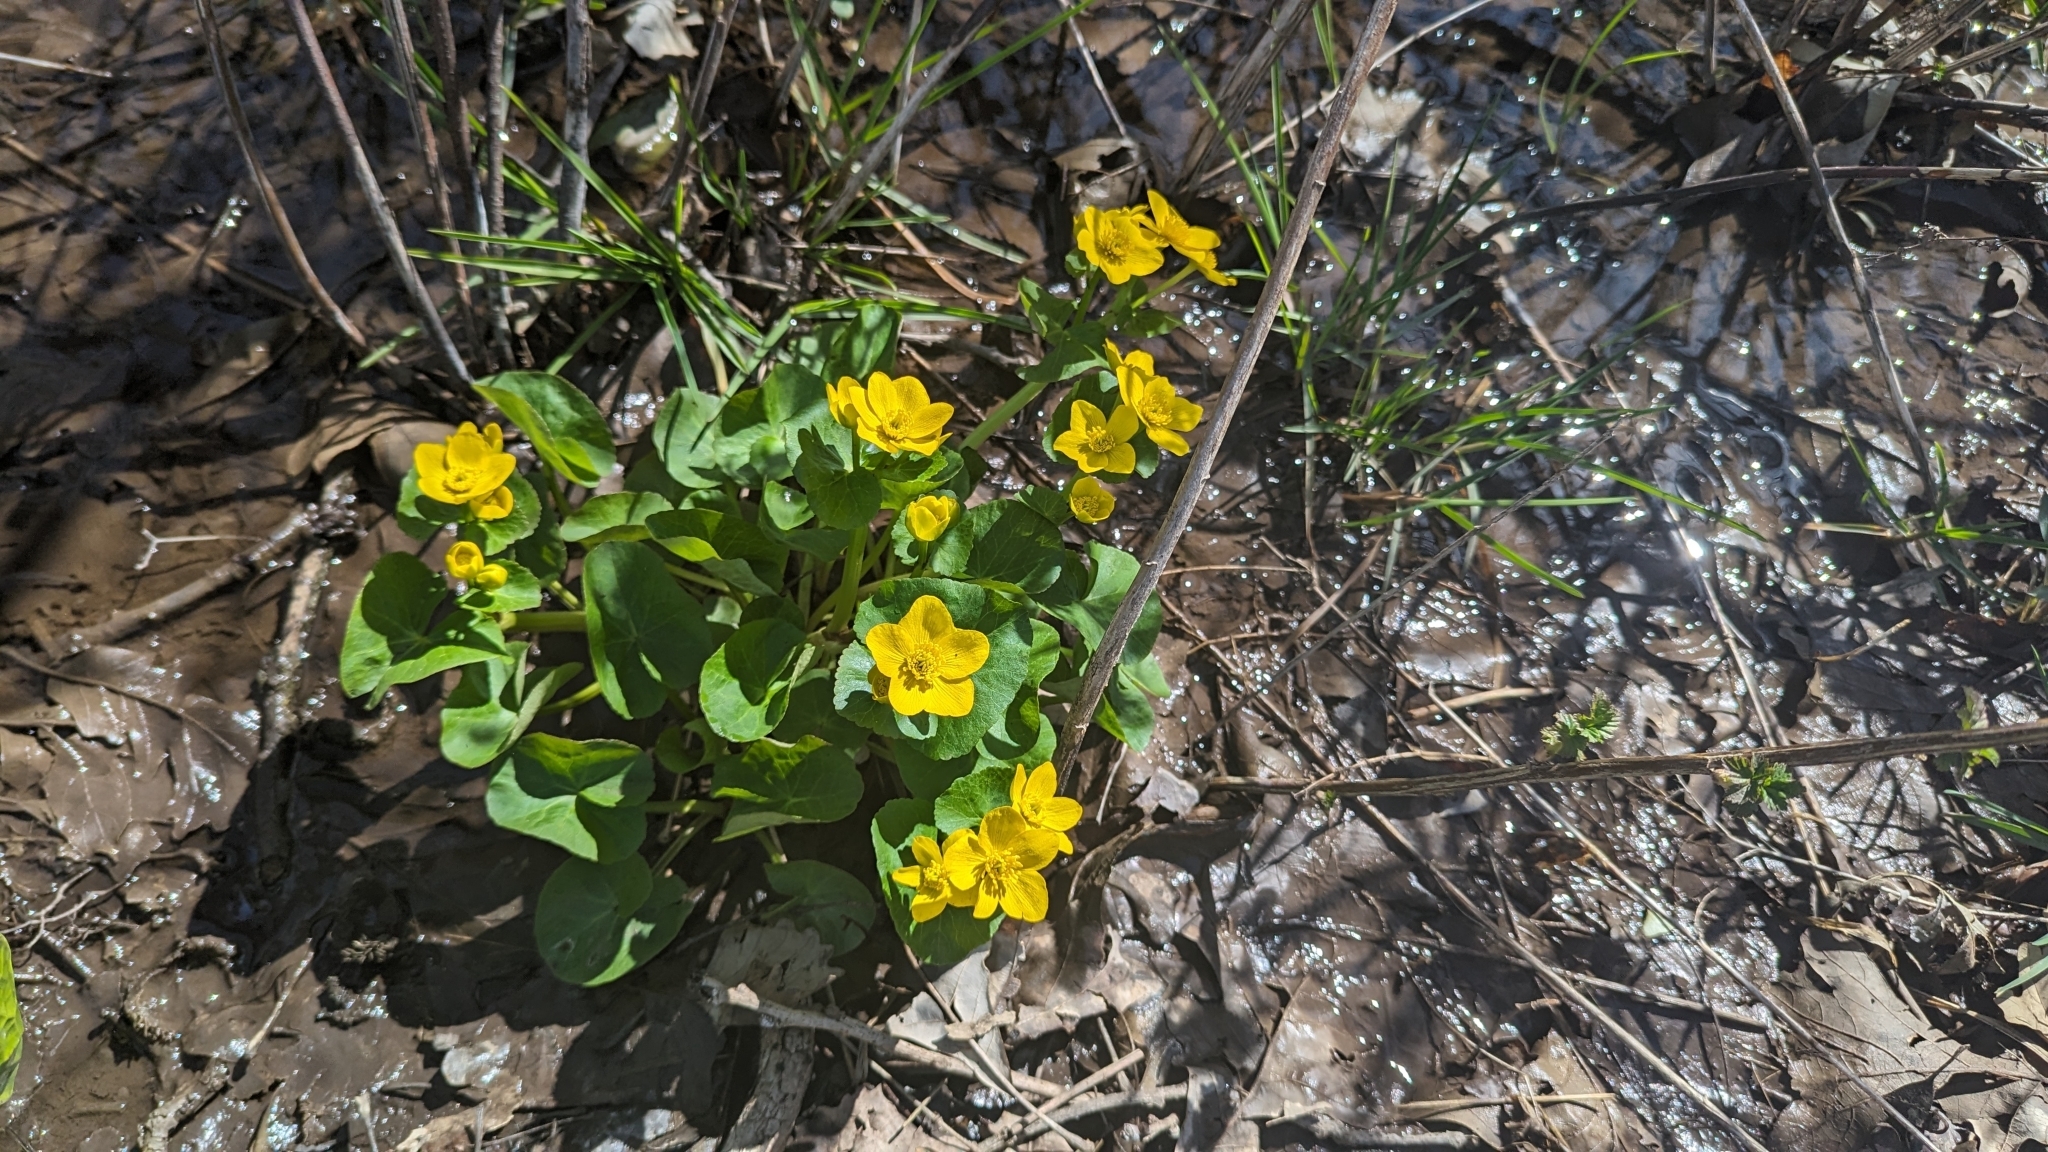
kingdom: Plantae
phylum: Tracheophyta
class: Magnoliopsida
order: Ranunculales
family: Ranunculaceae
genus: Caltha
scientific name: Caltha palustris
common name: Marsh marigold
